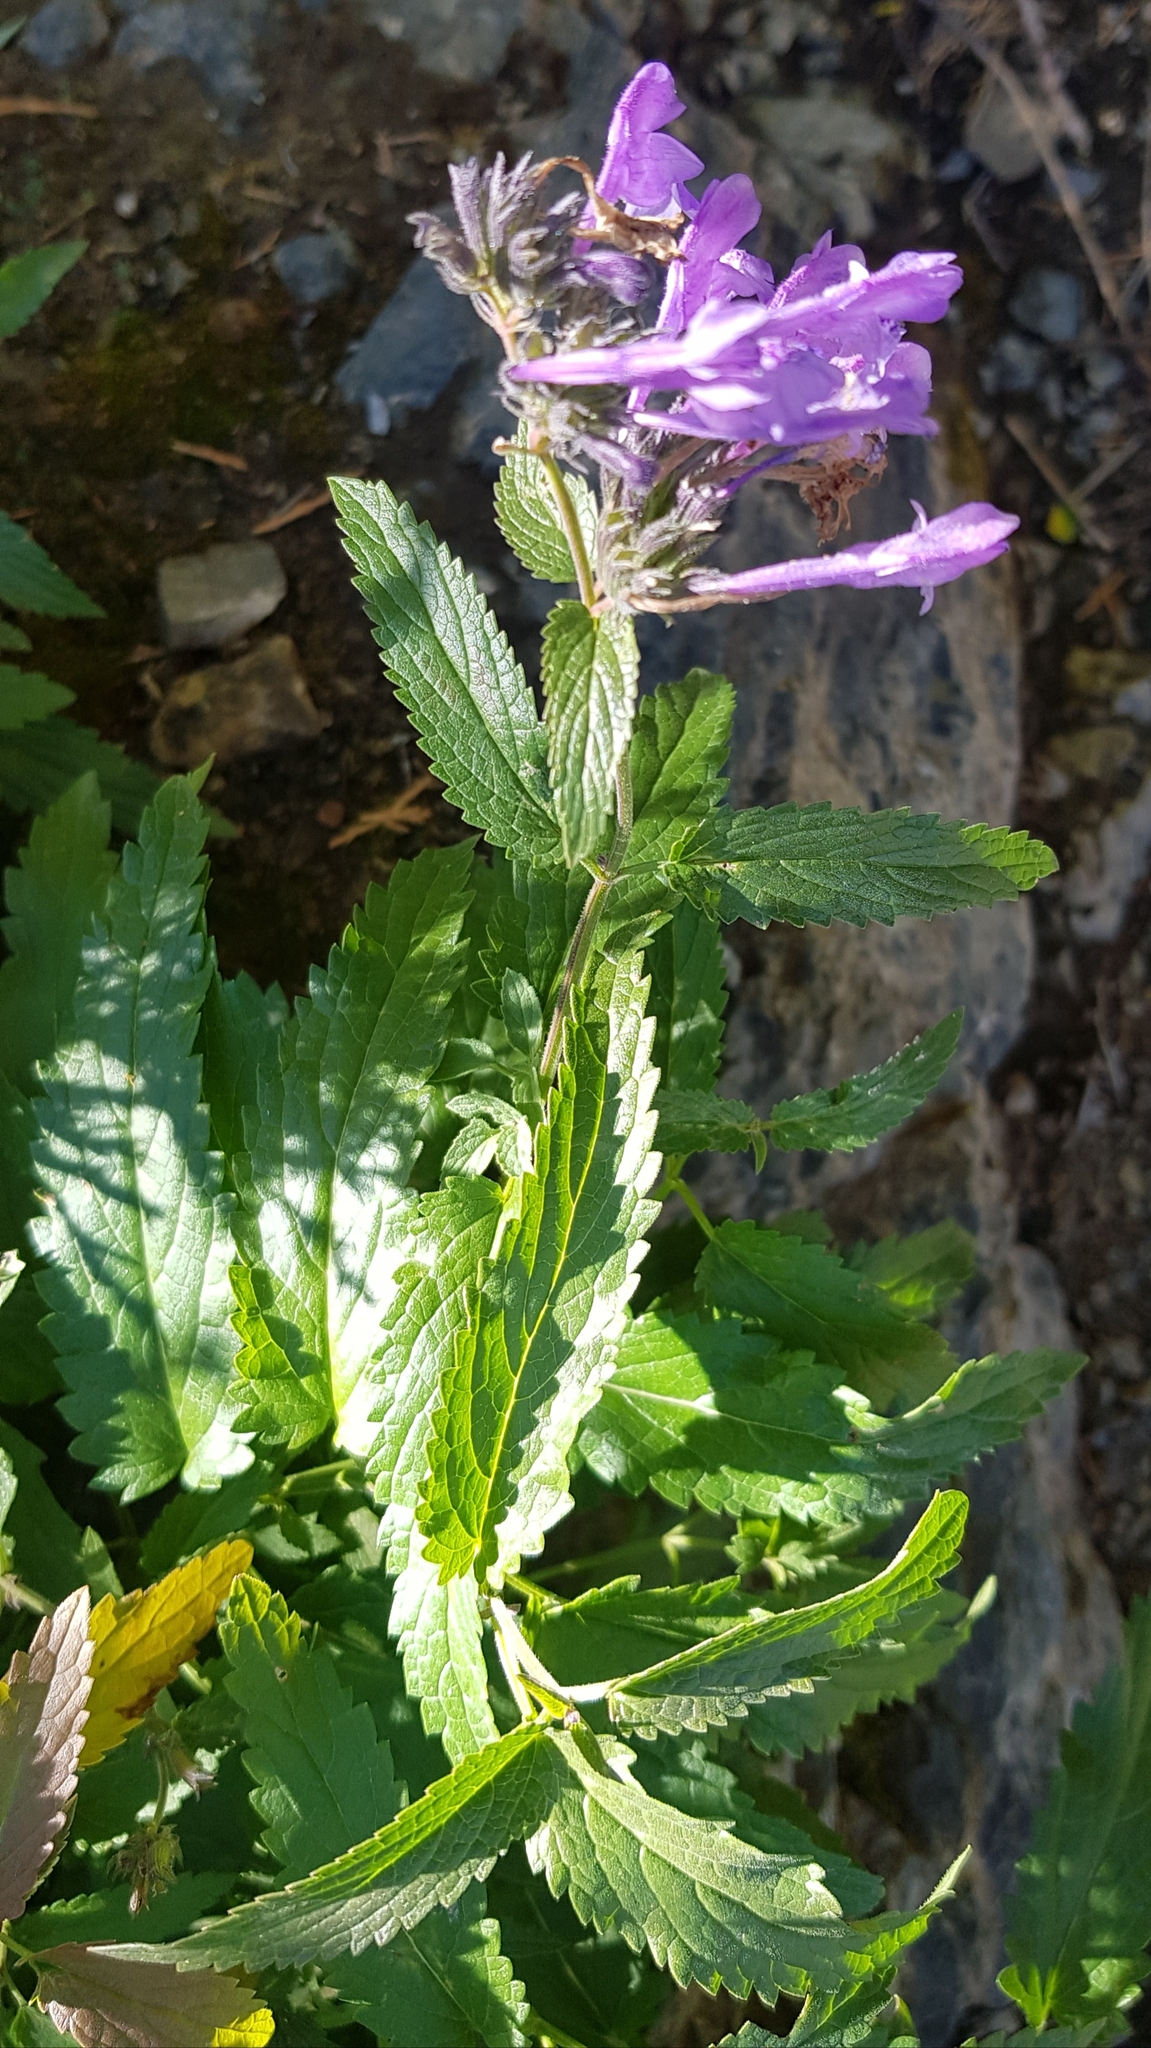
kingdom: Plantae
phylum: Tracheophyta
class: Magnoliopsida
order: Lamiales
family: Lamiaceae
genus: Nepeta
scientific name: Nepeta sibirica
